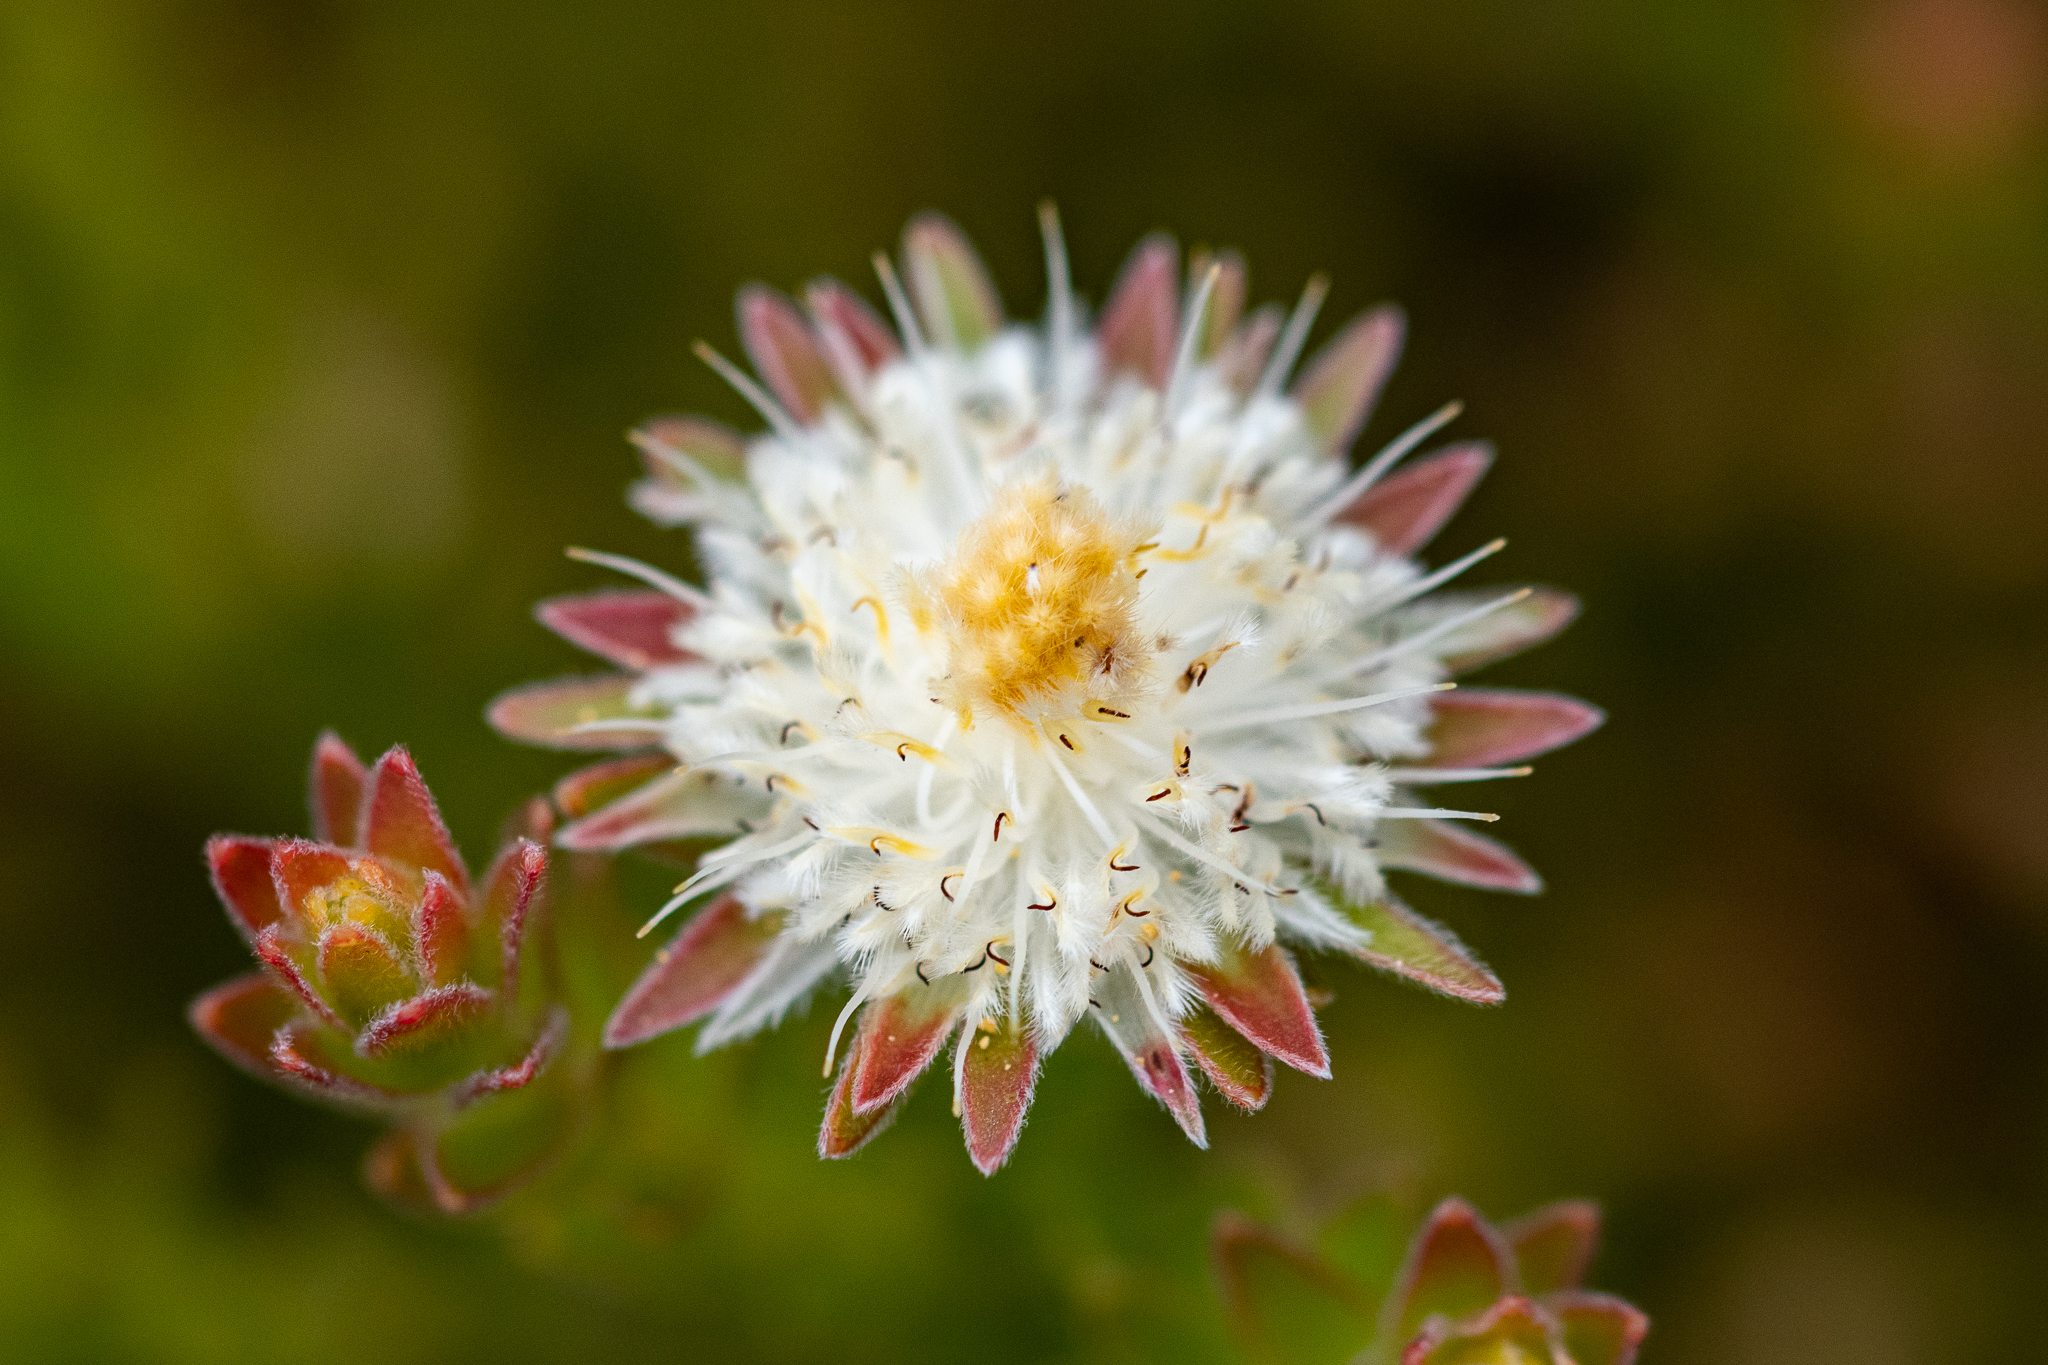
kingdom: Plantae
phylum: Tracheophyta
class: Magnoliopsida
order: Proteales
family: Proteaceae
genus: Diastella
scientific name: Diastella fraterna
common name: Palmiet silkypuff
